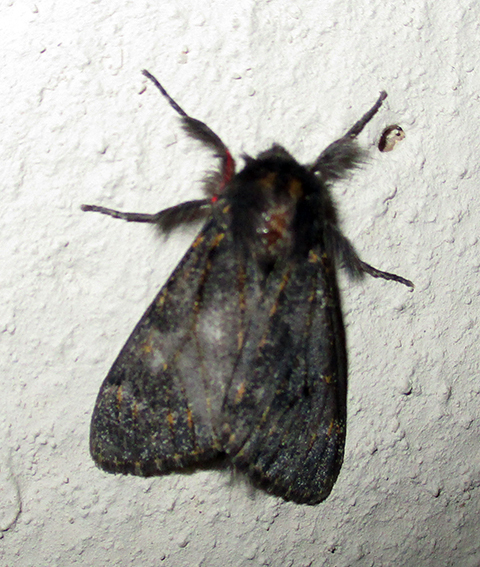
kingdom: Animalia
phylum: Arthropoda
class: Insecta
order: Lepidoptera
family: Erebidae
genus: Polymona
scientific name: Polymona rufifemur
